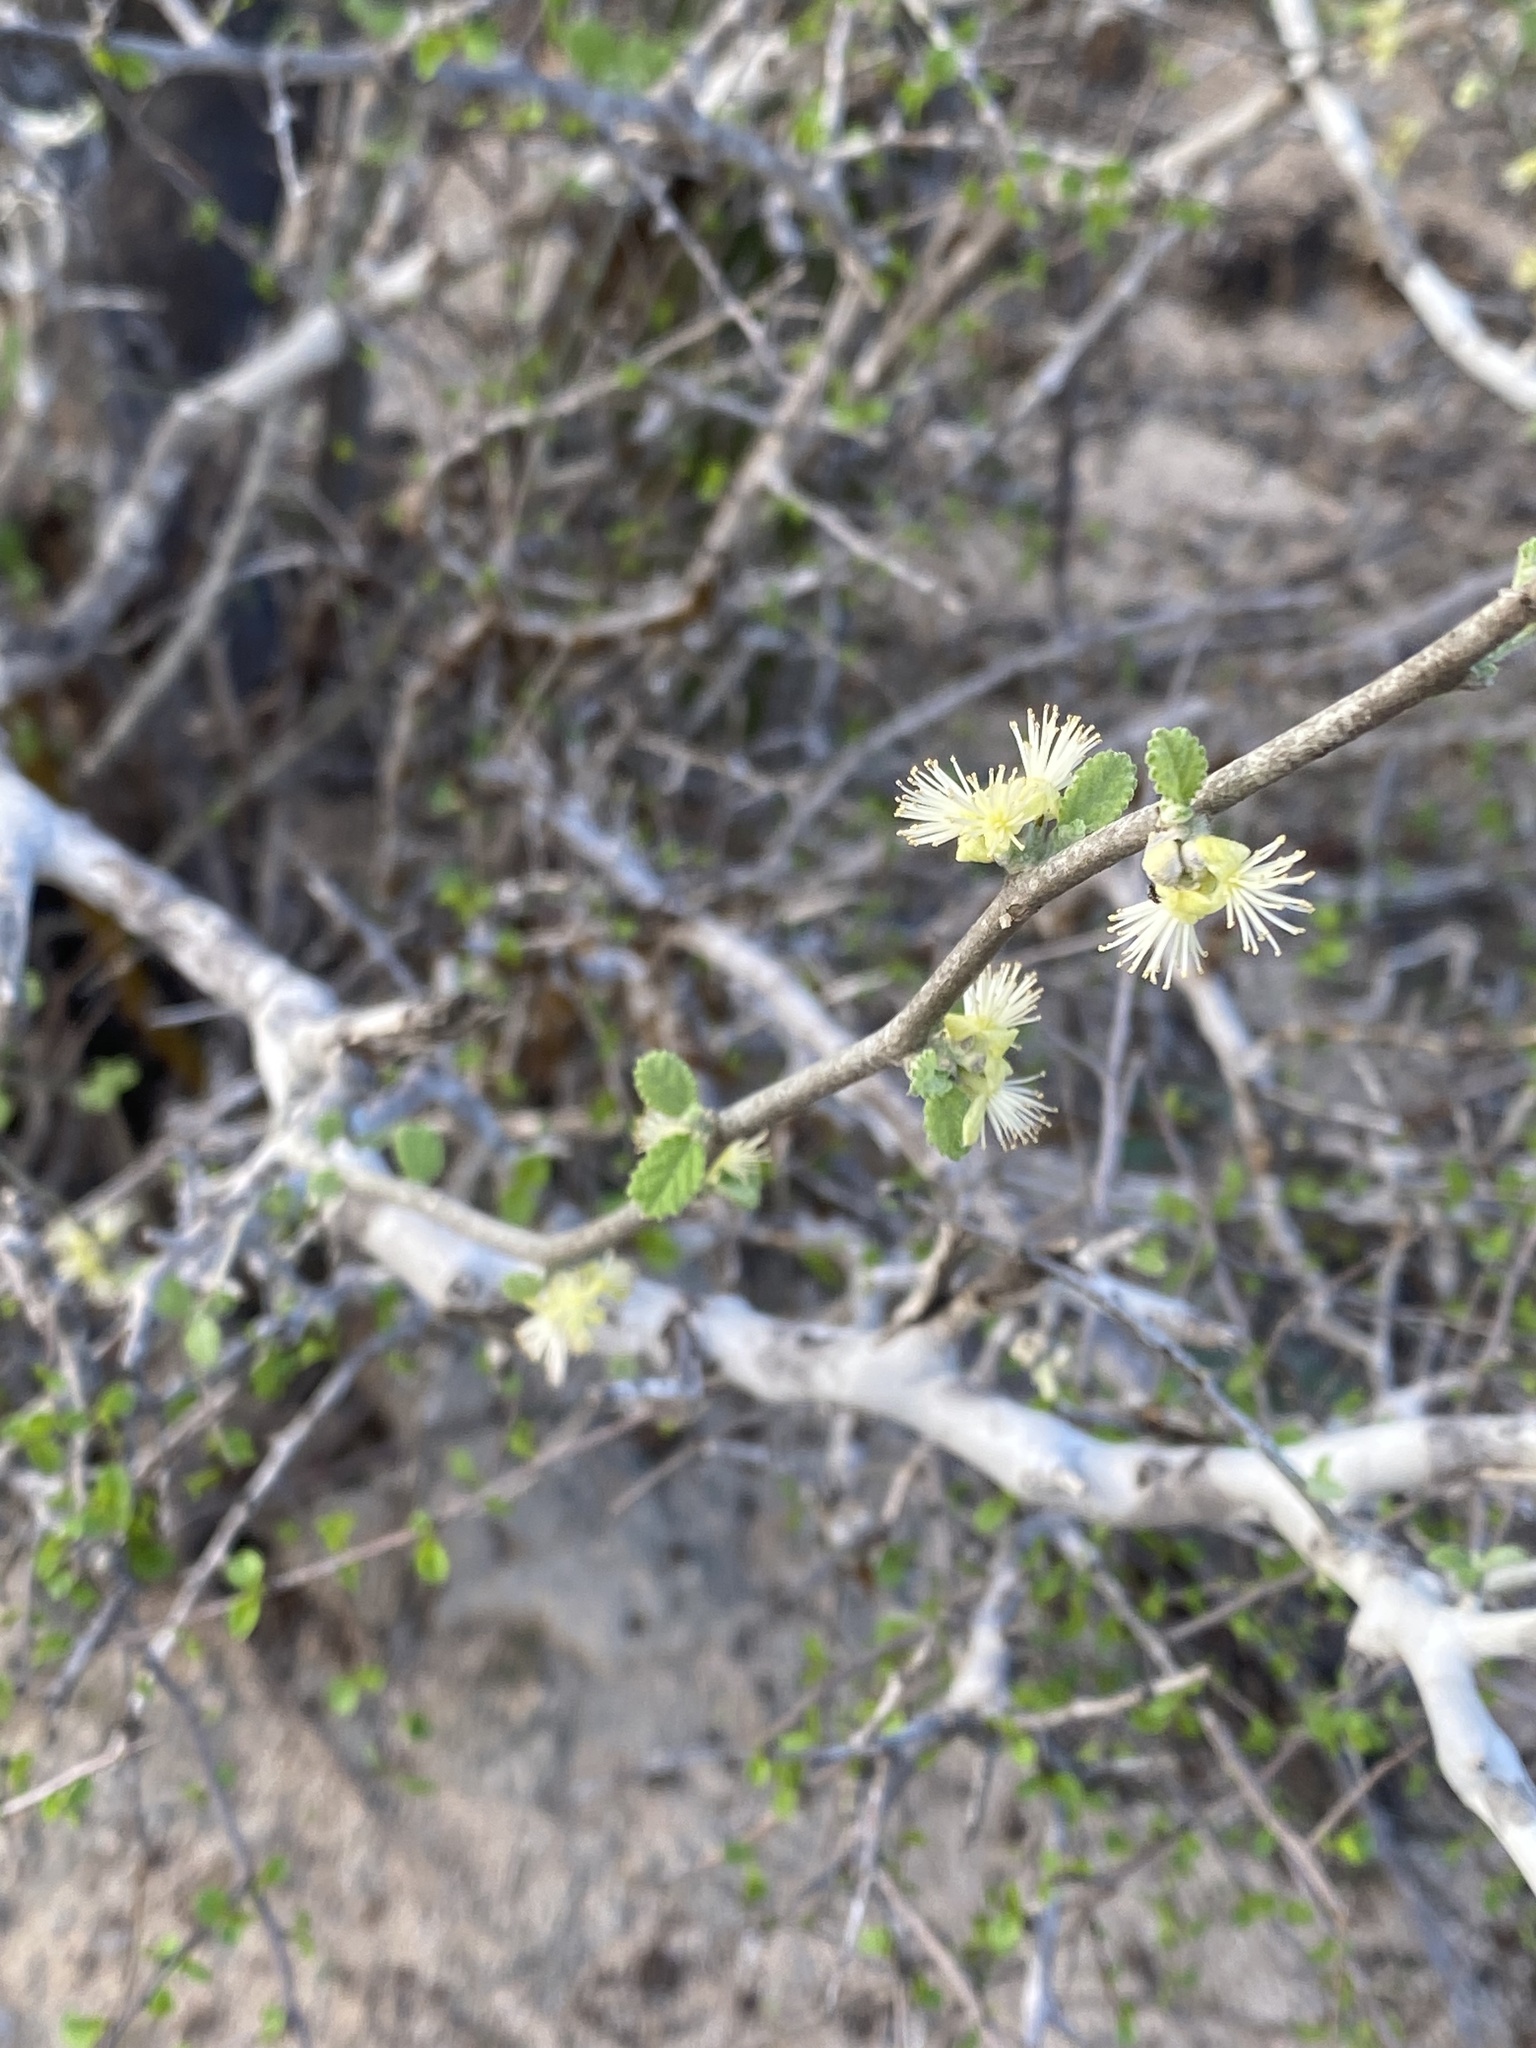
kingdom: Plantae
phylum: Tracheophyta
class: Magnoliopsida
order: Malpighiales
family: Euphorbiaceae
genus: Bernardia
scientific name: Bernardia myricifolia
